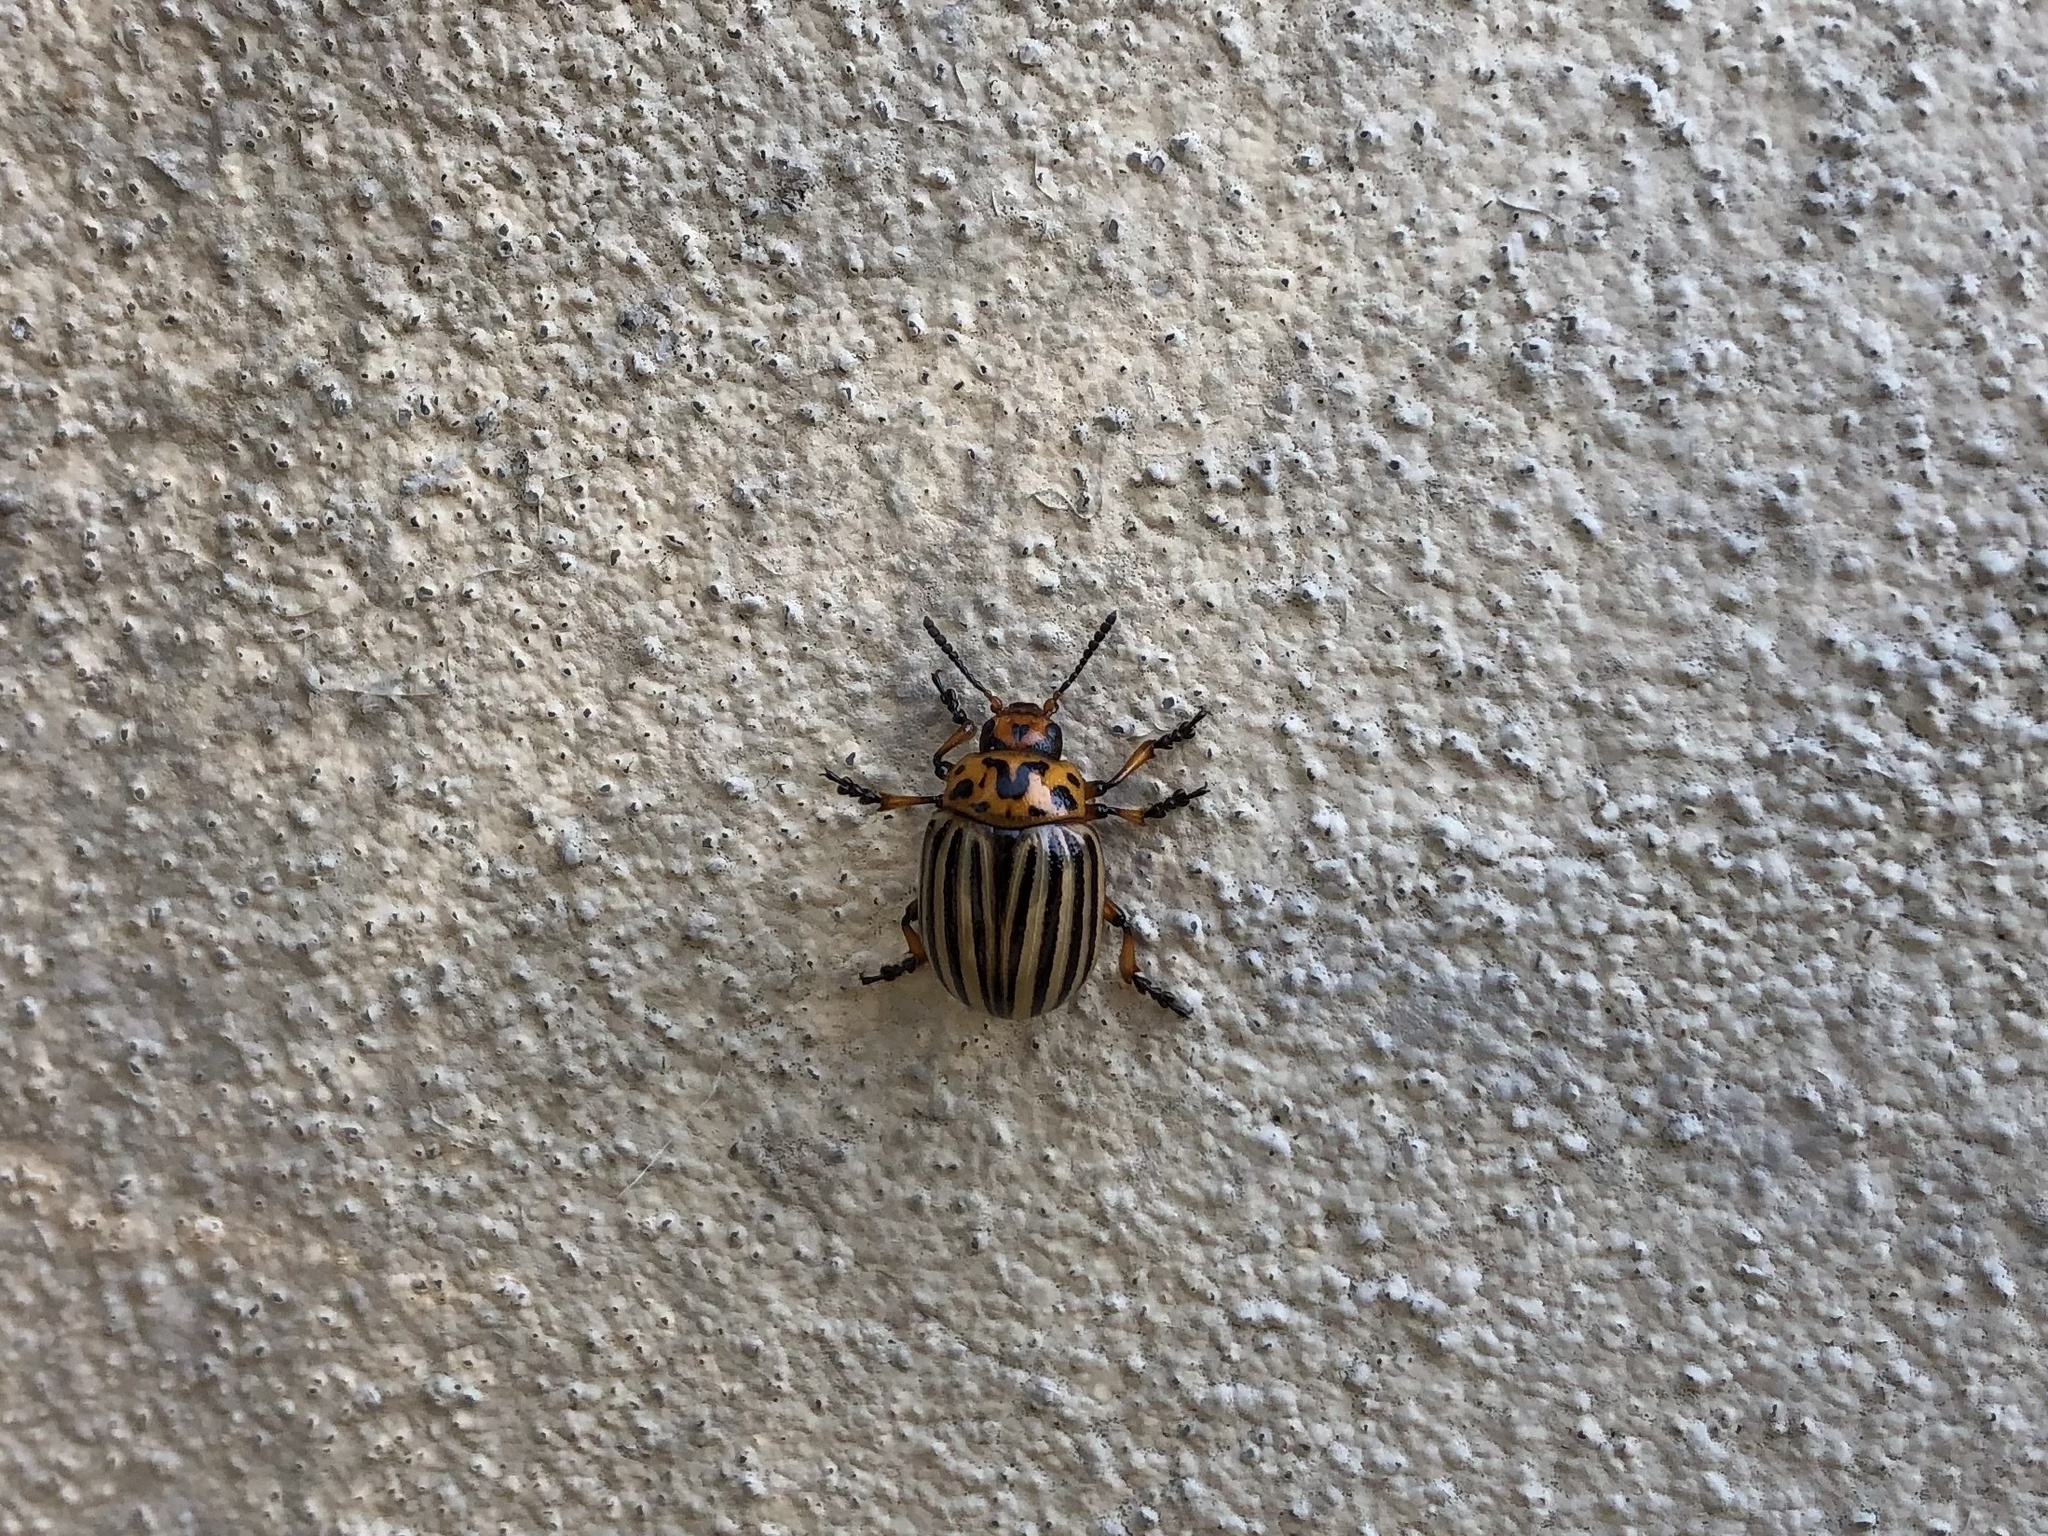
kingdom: Animalia
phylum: Arthropoda
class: Insecta
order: Coleoptera
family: Chrysomelidae
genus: Leptinotarsa
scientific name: Leptinotarsa decemlineata
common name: Colorado potato beetle
